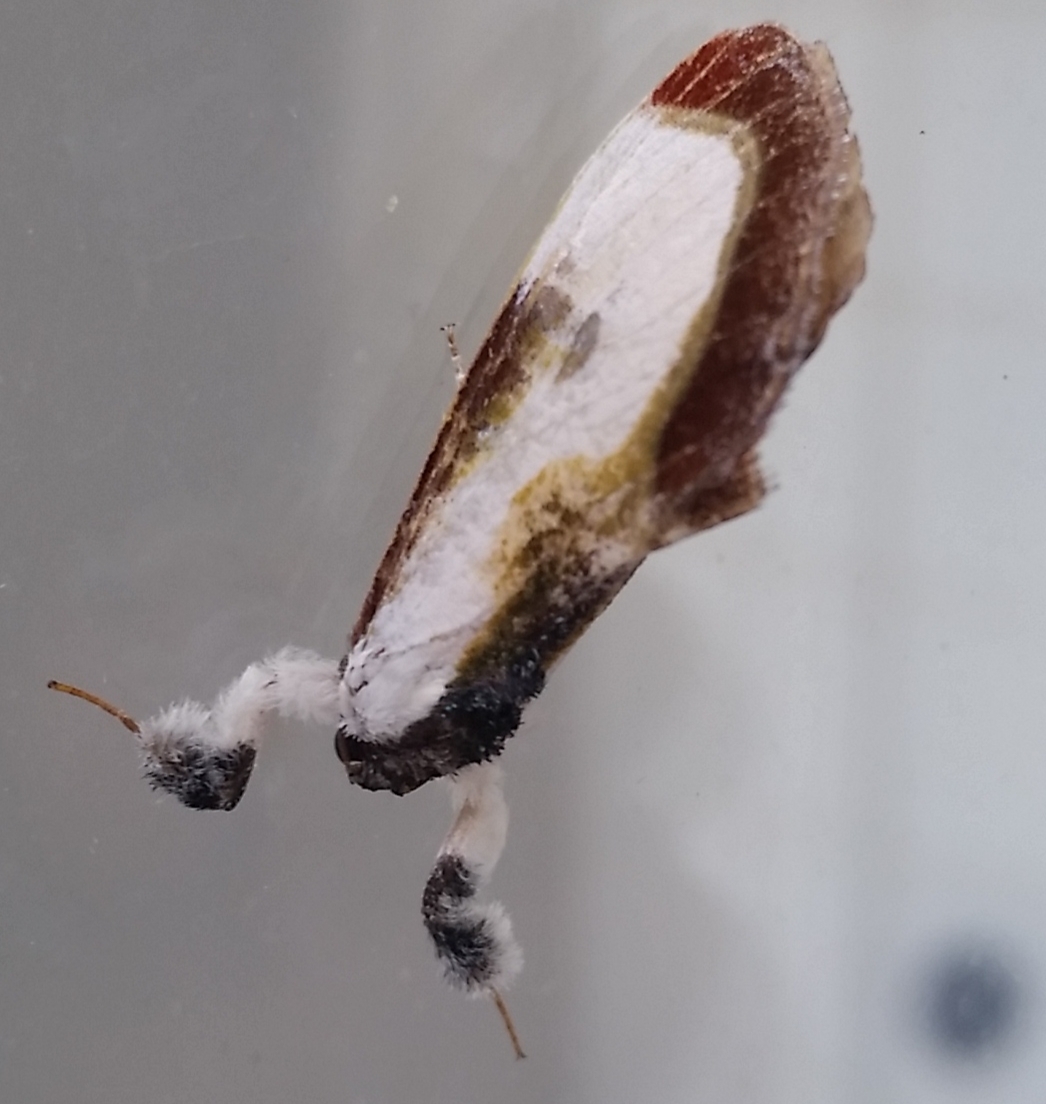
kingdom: Animalia
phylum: Arthropoda
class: Insecta
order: Lepidoptera
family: Noctuidae
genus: Eudryas
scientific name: Eudryas grata
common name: Beautiful wood-nymph
